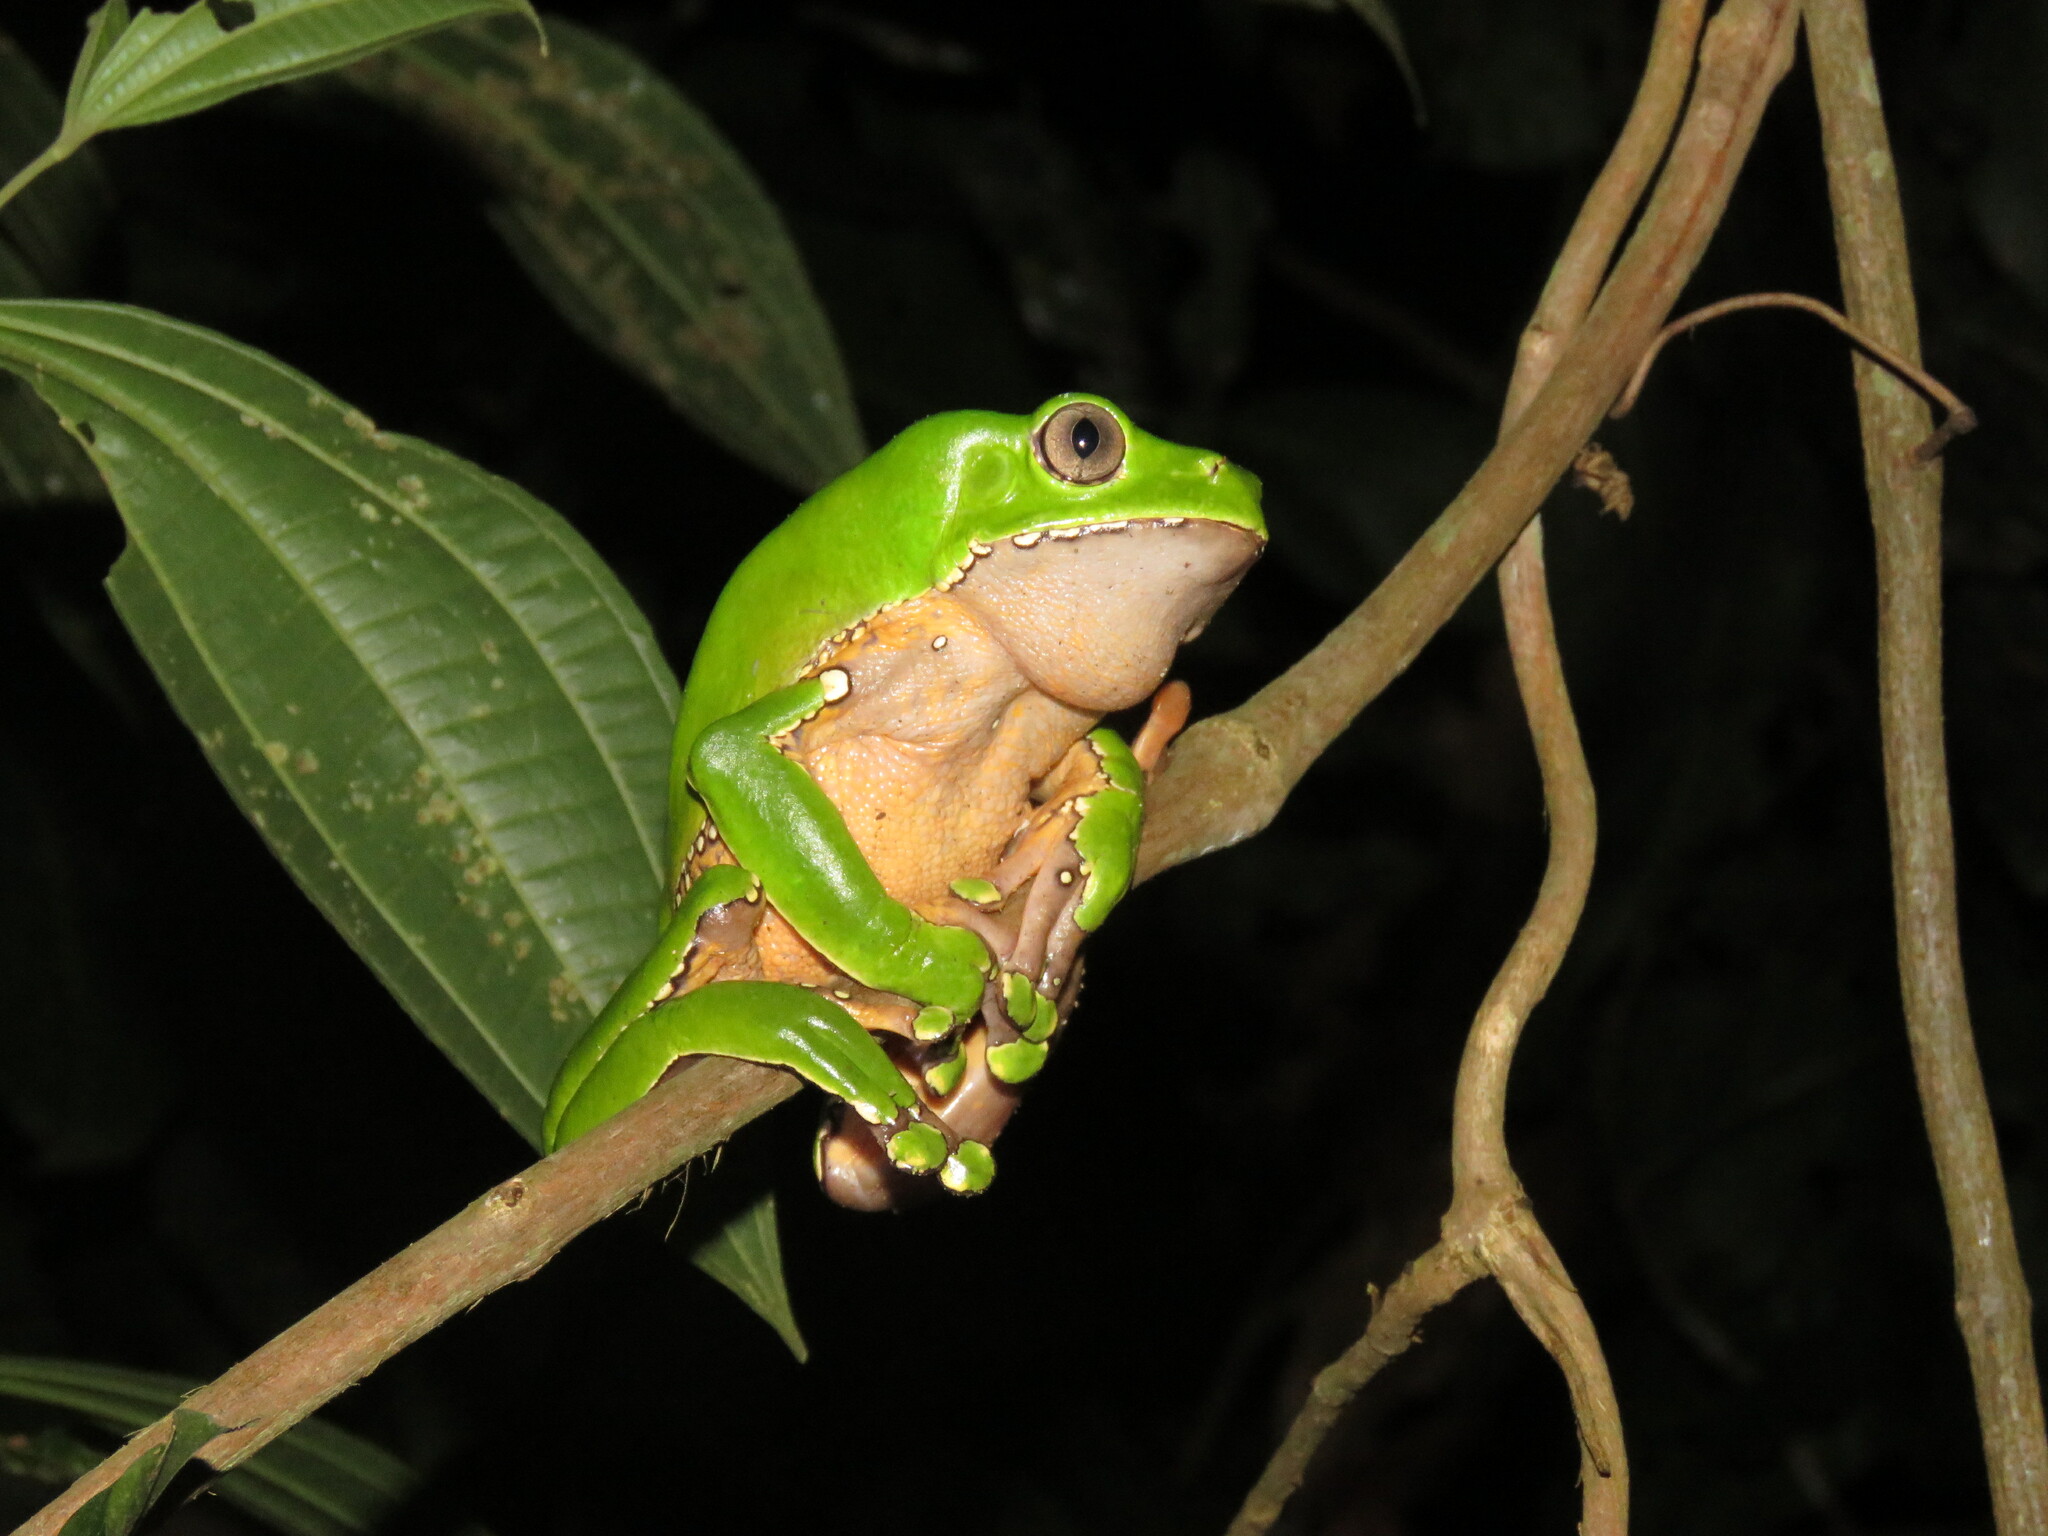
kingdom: Animalia
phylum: Chordata
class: Amphibia
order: Anura
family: Phyllomedusidae
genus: Phyllomedusa
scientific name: Phyllomedusa bicolor
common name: Giant monkey frog
